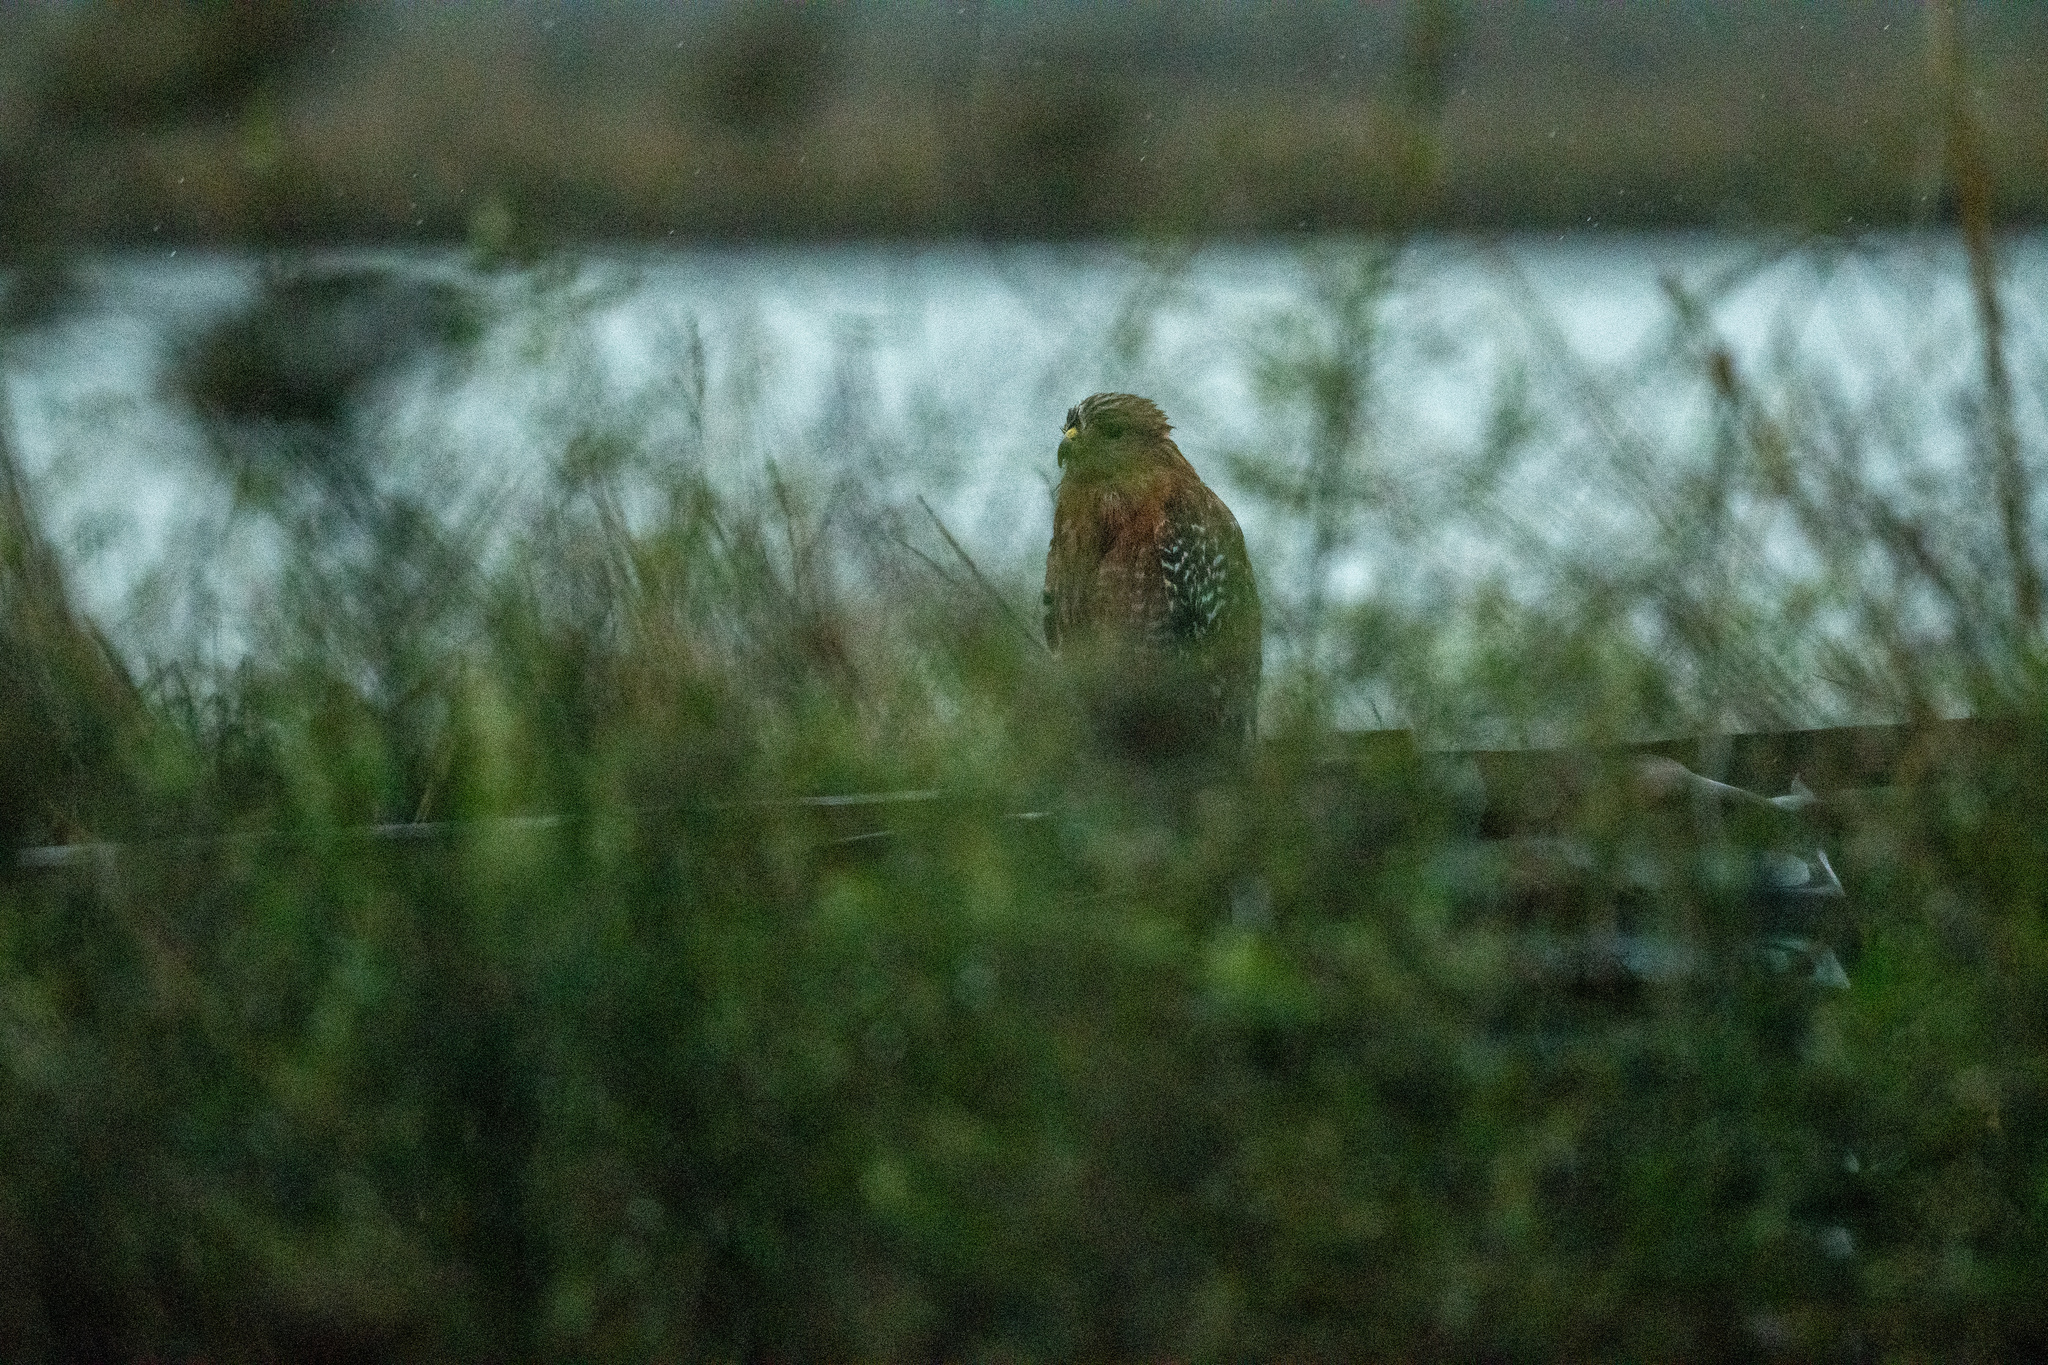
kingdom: Animalia
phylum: Chordata
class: Aves
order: Accipitriformes
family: Accipitridae
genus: Buteo
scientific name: Buteo lineatus
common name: Red-shouldered hawk
